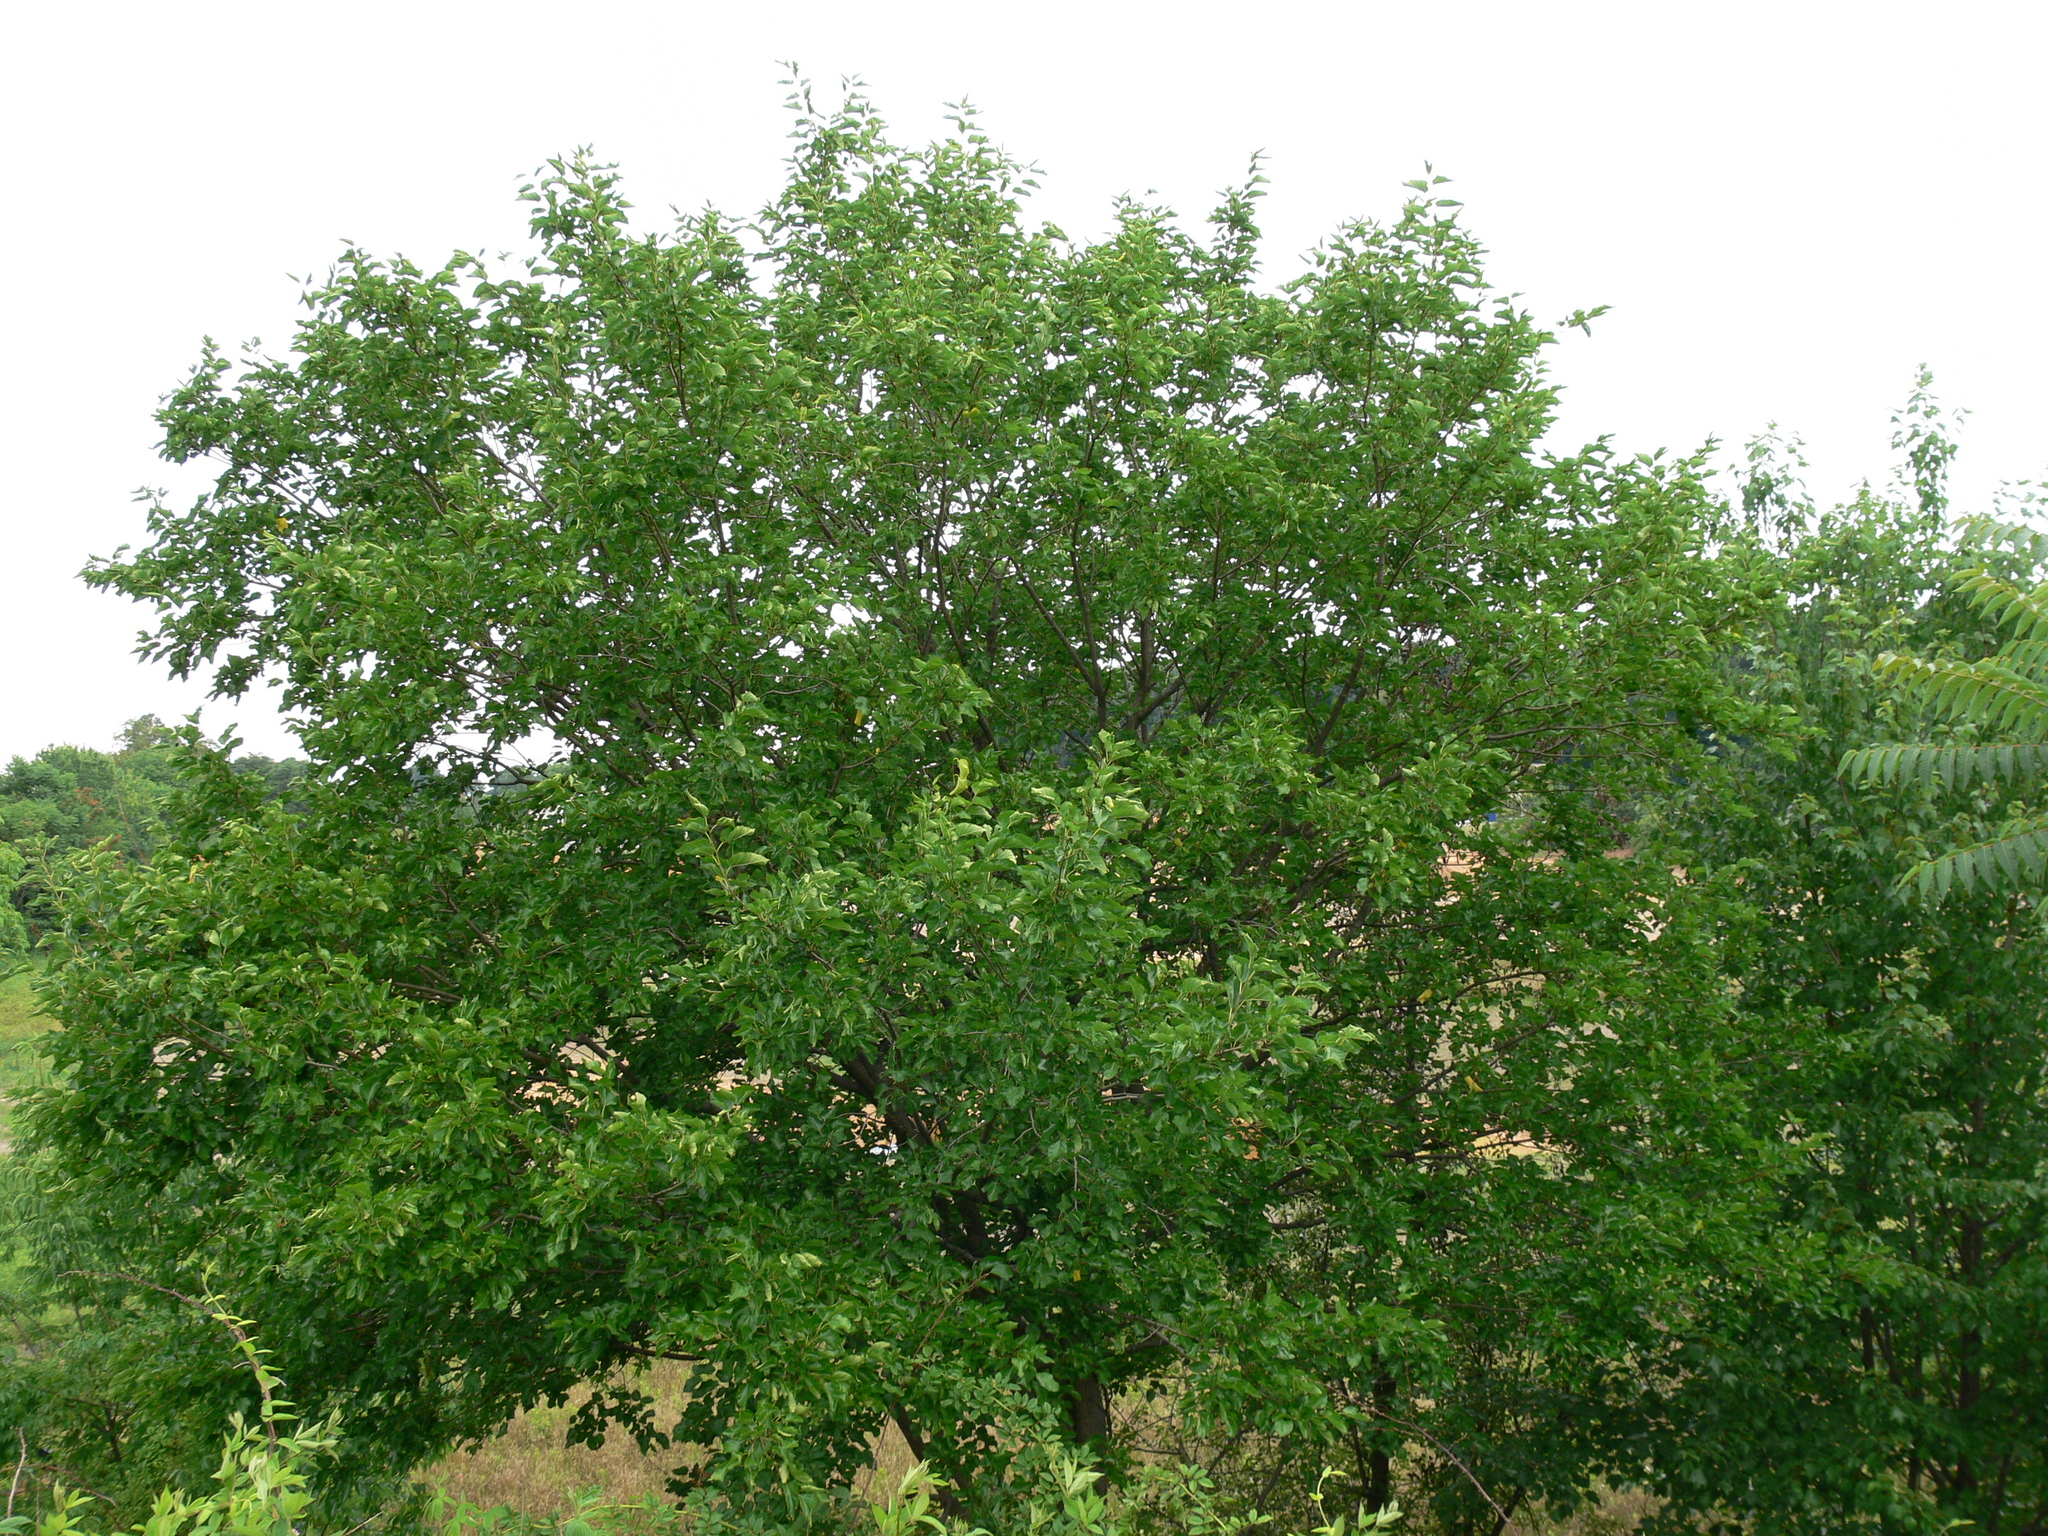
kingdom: Plantae
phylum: Tracheophyta
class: Magnoliopsida
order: Rosales
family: Ulmaceae
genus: Ulmus
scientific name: Ulmus americana
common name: American elm
